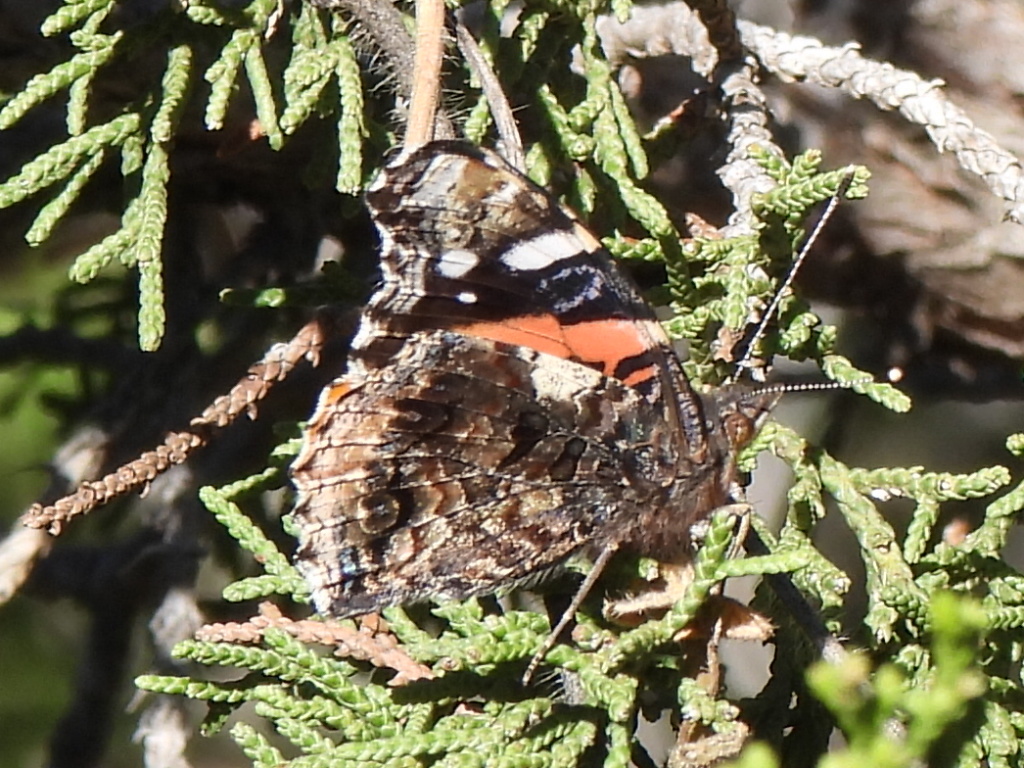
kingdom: Animalia
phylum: Arthropoda
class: Insecta
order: Lepidoptera
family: Nymphalidae
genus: Vanessa
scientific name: Vanessa atalanta
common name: Red admiral
